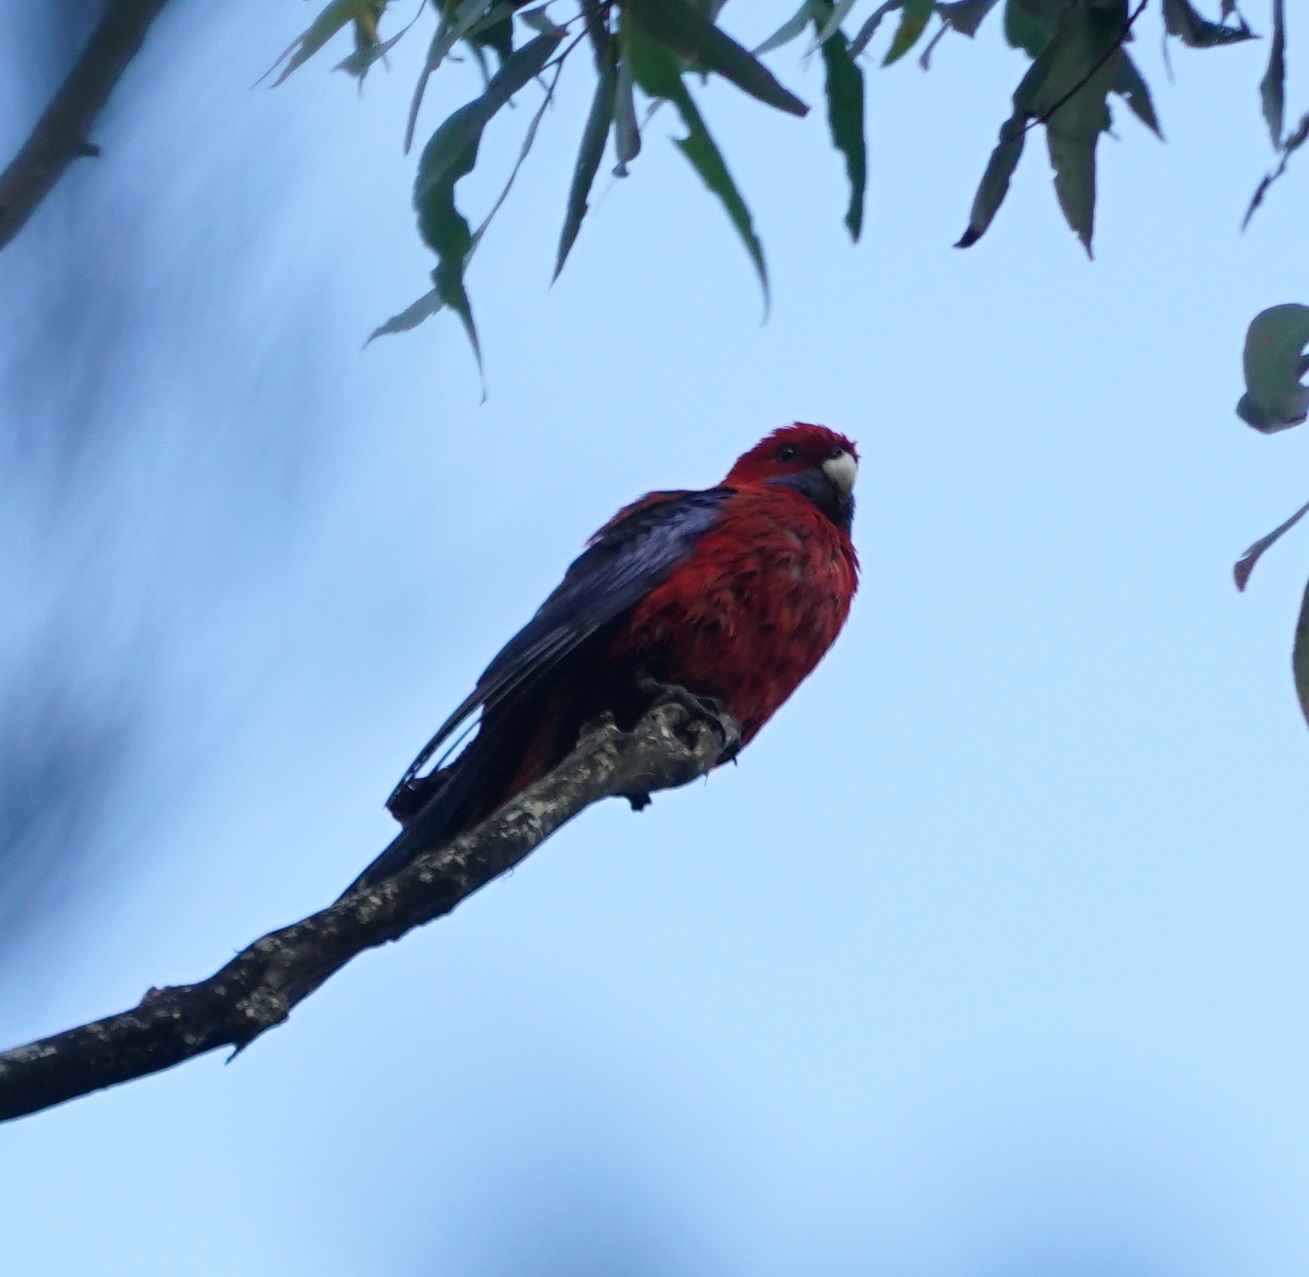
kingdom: Animalia
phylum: Chordata
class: Aves
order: Psittaciformes
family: Psittacidae
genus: Platycercus
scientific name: Platycercus elegans
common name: Crimson rosella
